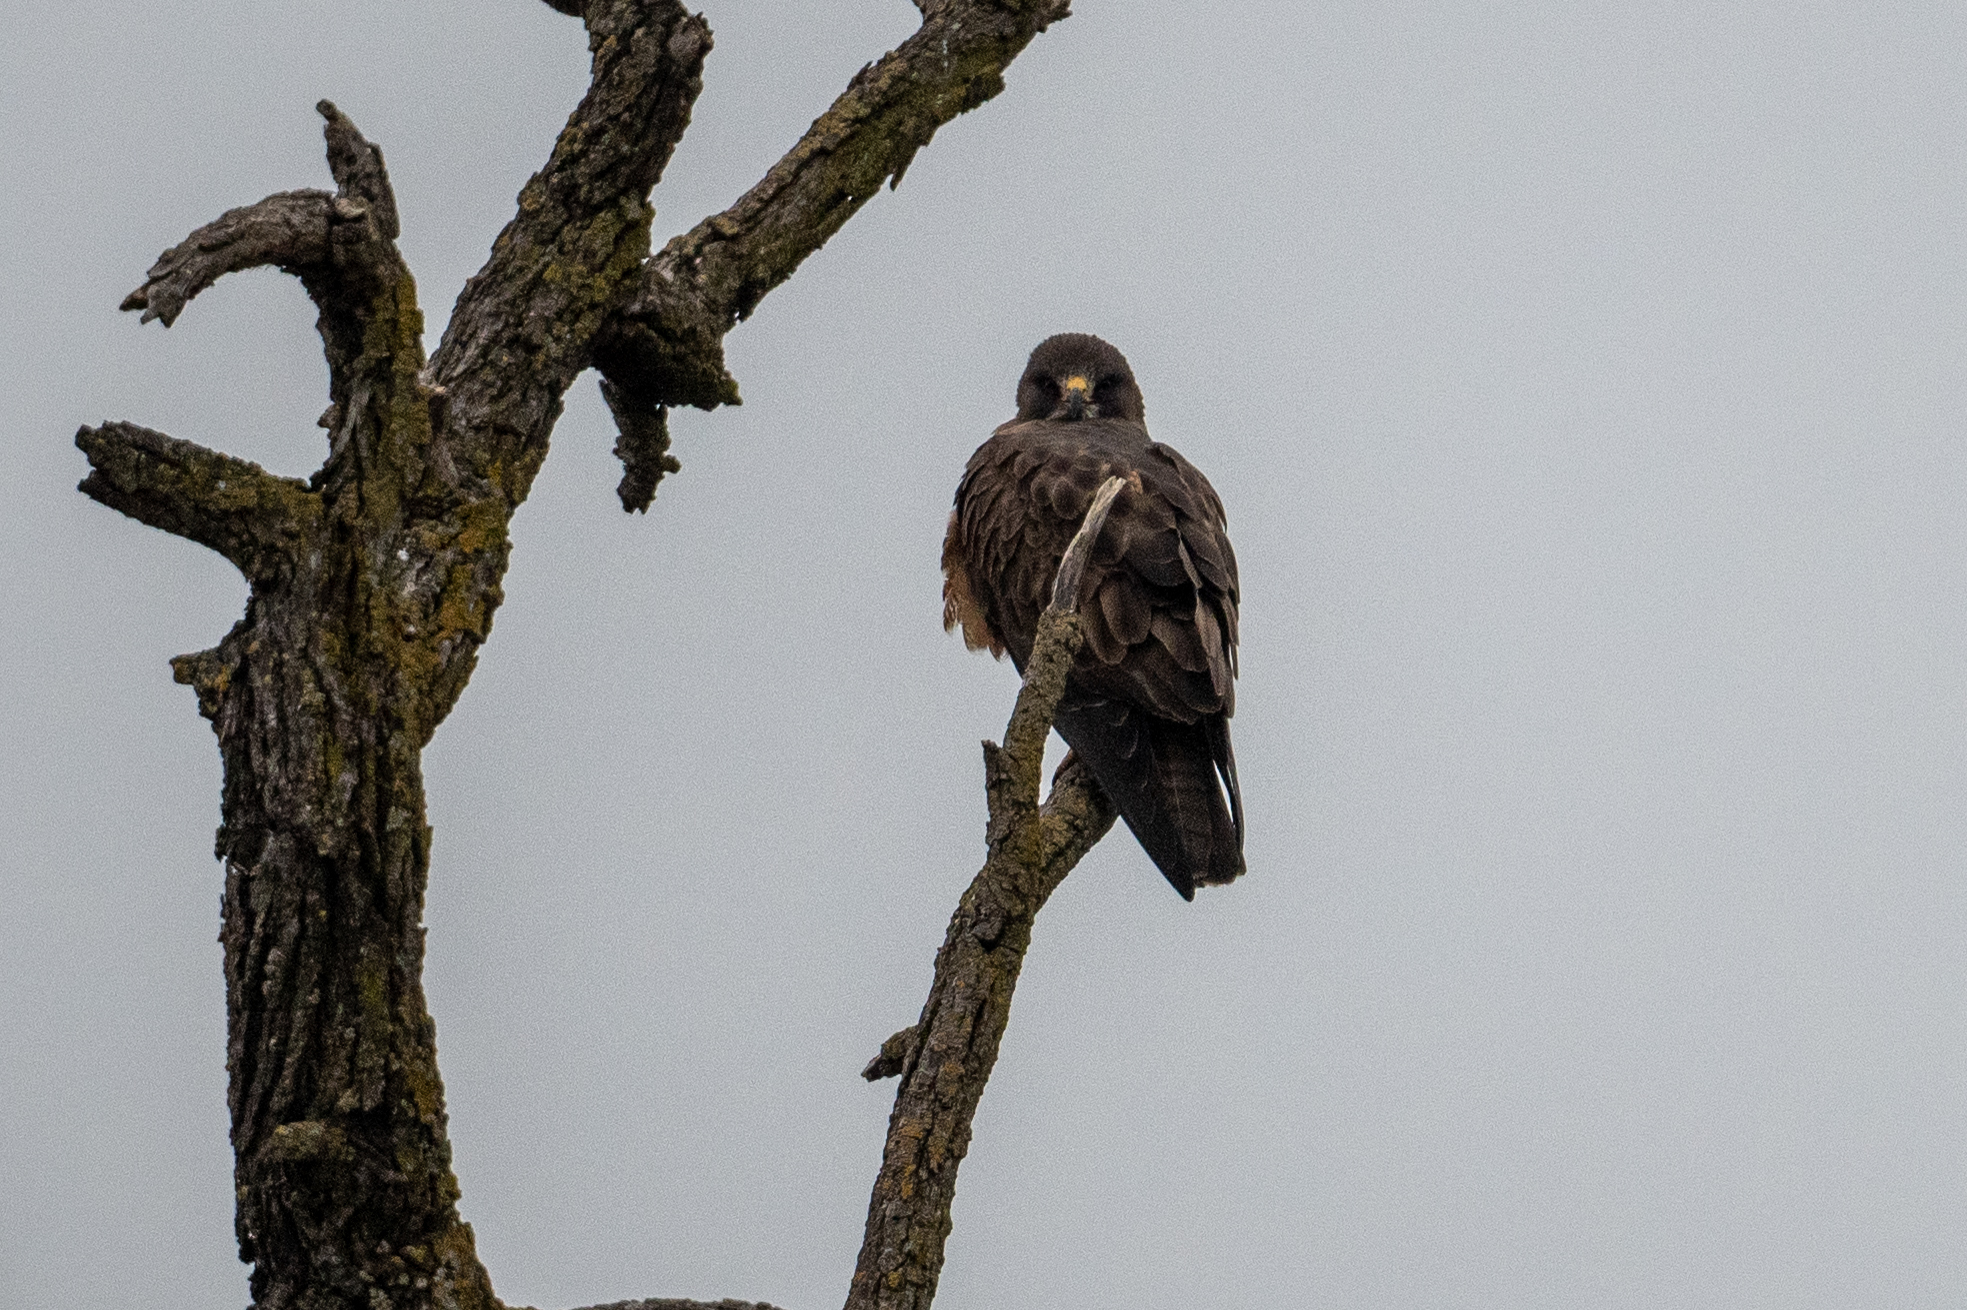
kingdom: Animalia
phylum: Chordata
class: Aves
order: Accipitriformes
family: Accipitridae
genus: Buteo
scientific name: Buteo swainsoni
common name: Swainson's hawk
